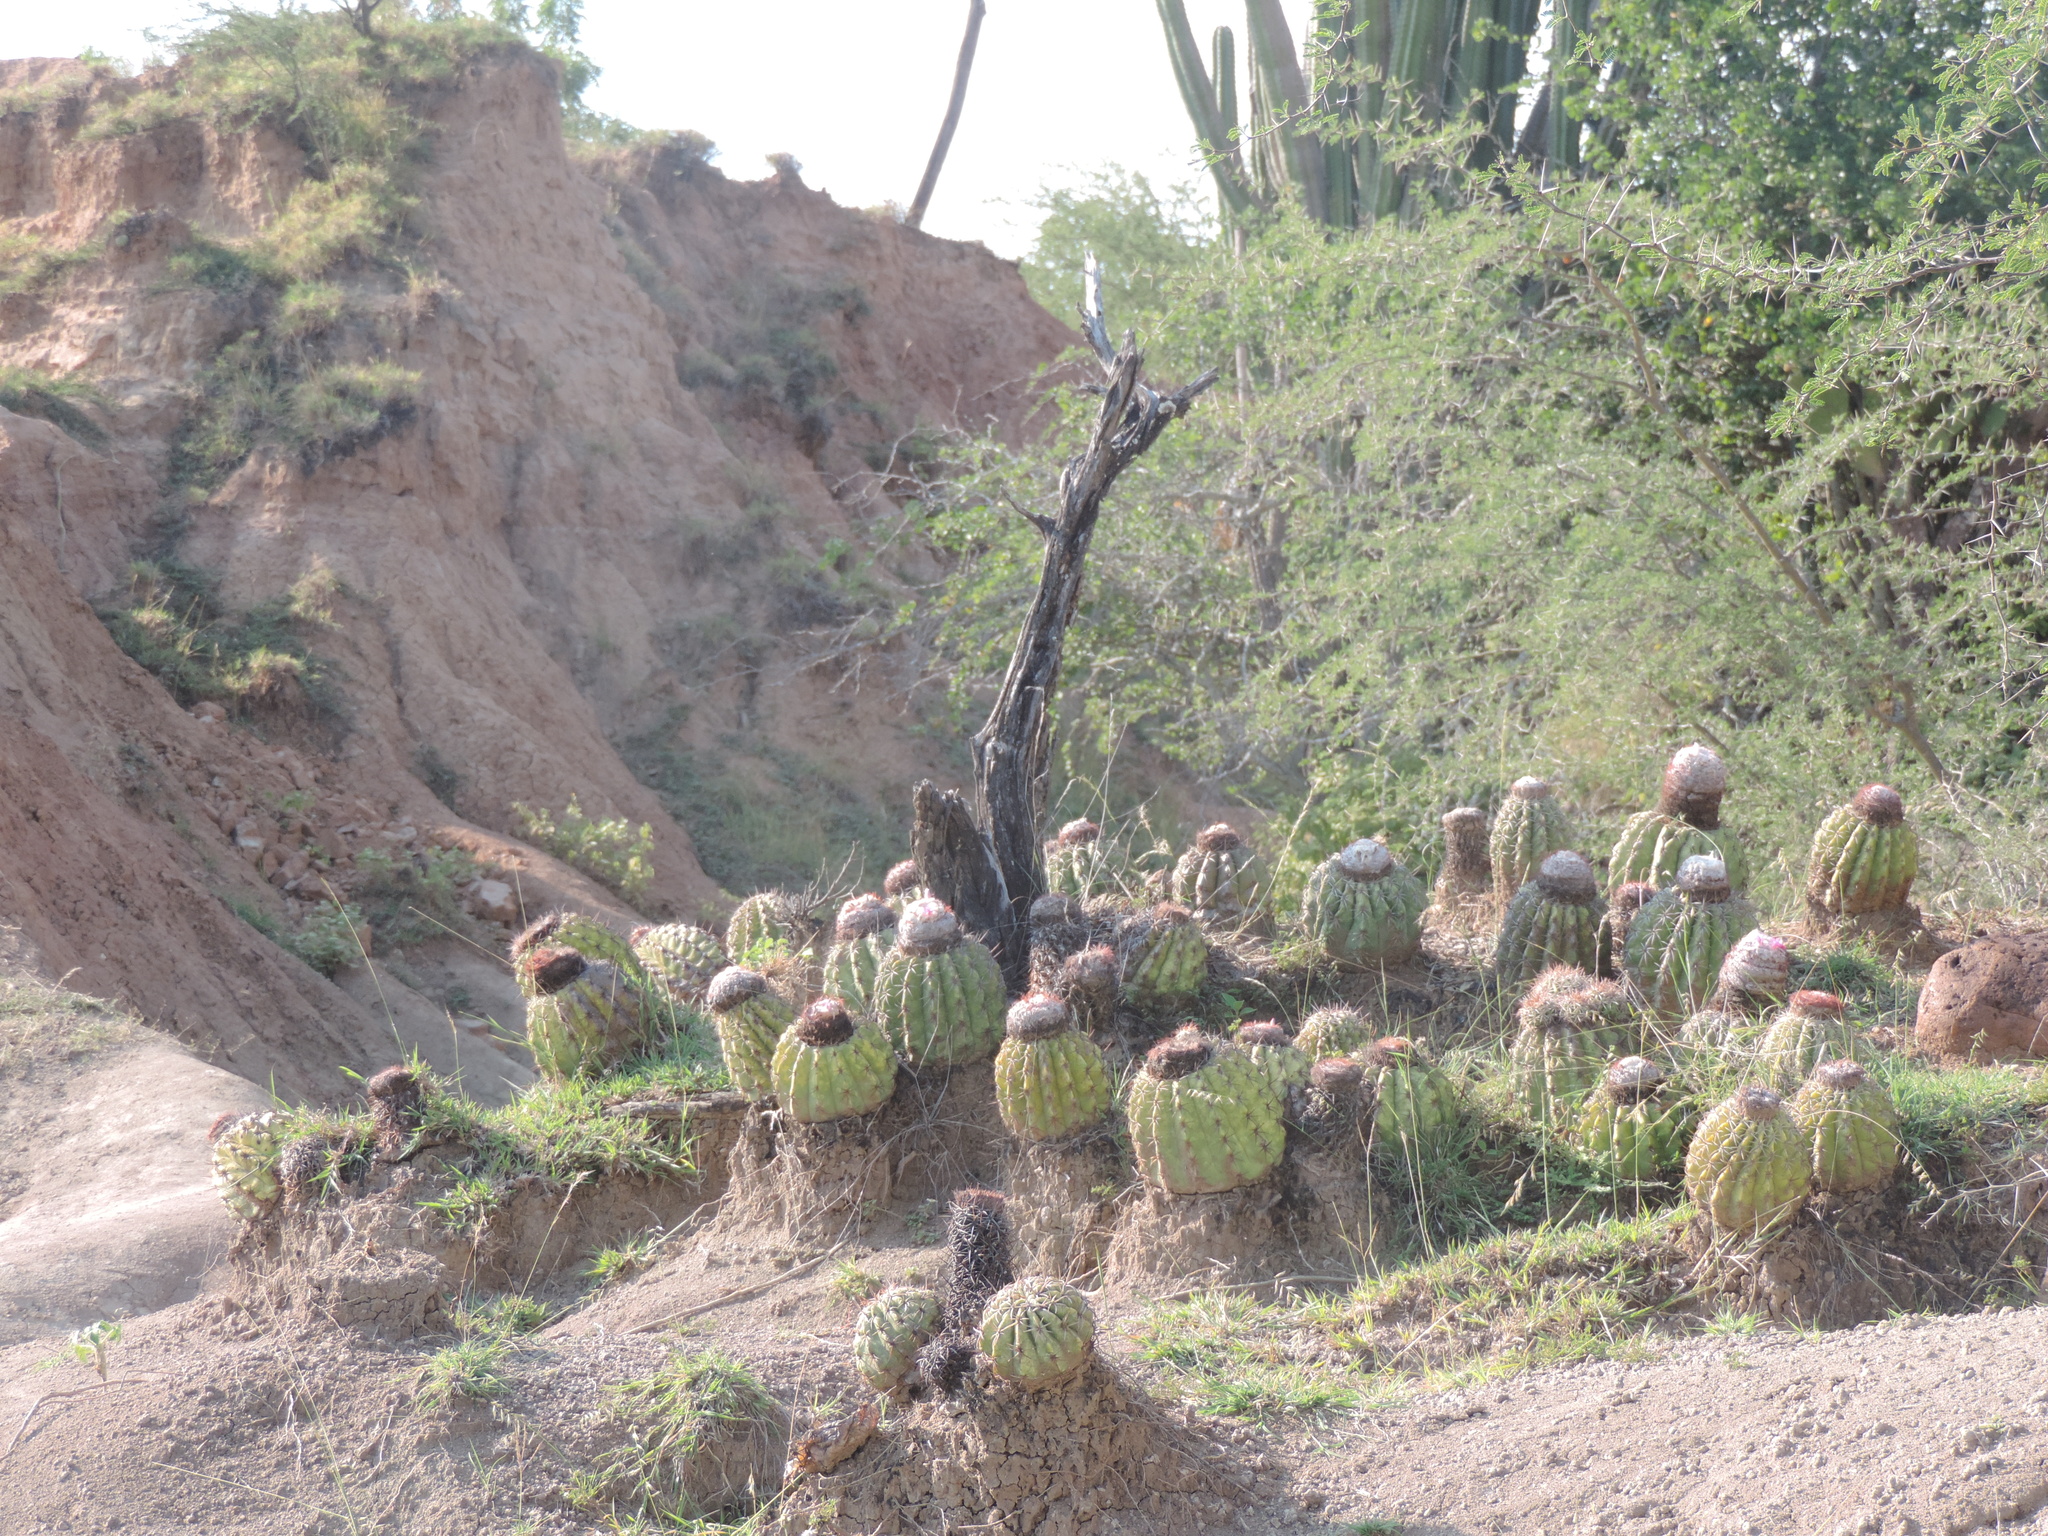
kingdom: Plantae
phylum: Tracheophyta
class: Magnoliopsida
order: Caryophyllales
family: Cactaceae
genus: Melocactus
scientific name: Melocactus curvispinus
